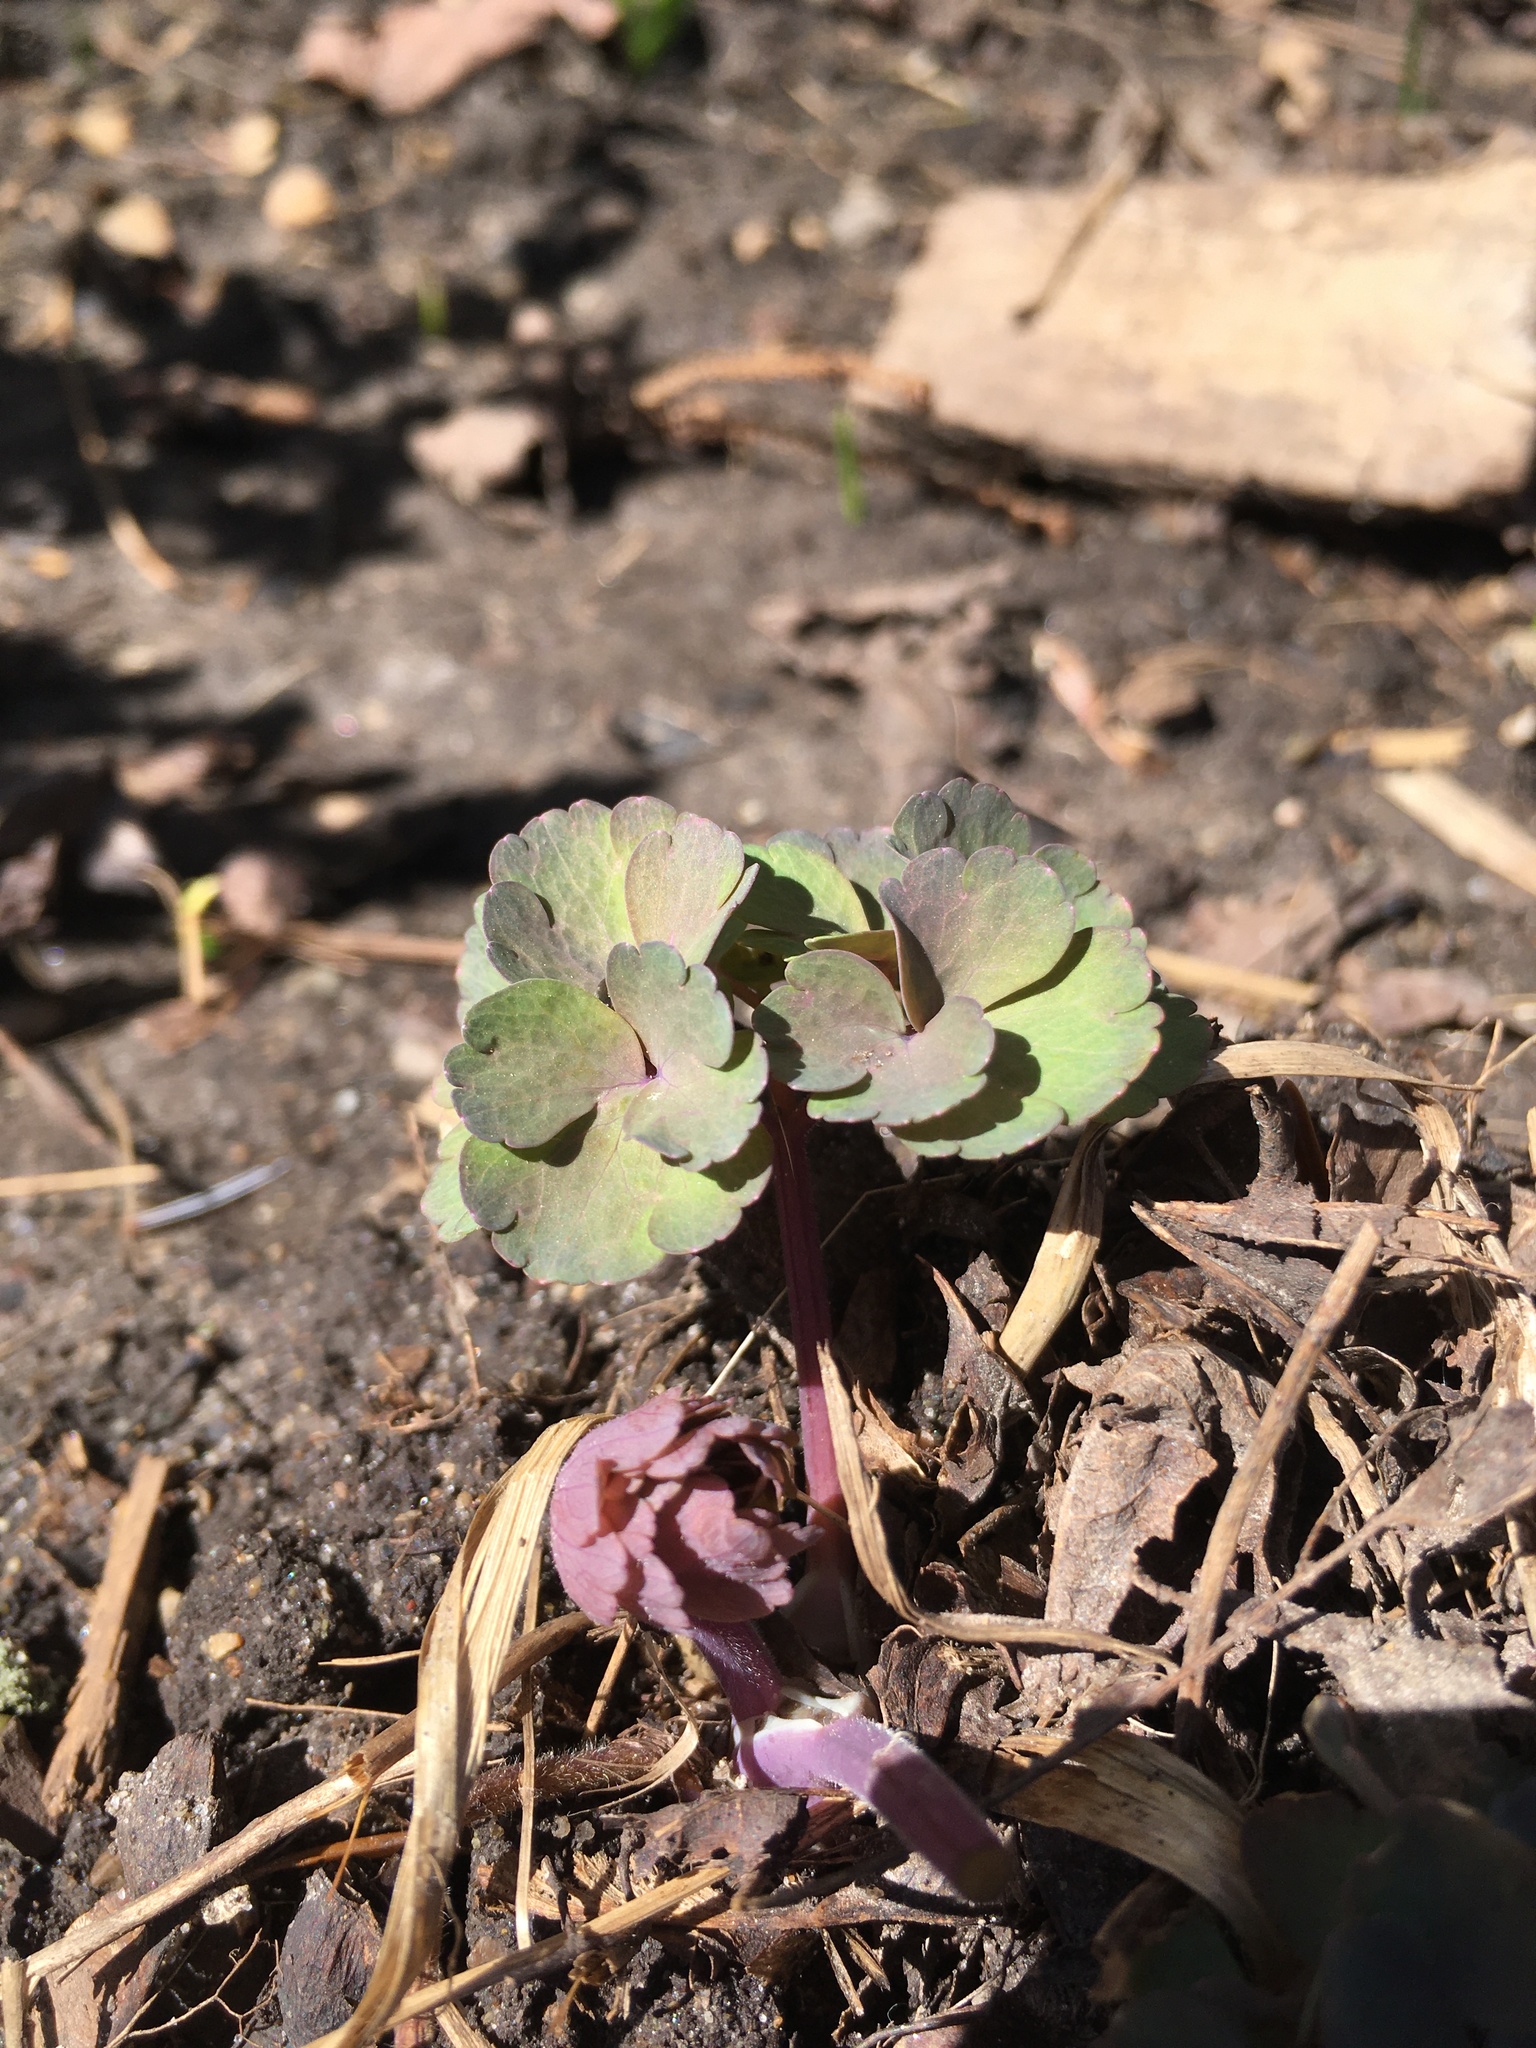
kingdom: Plantae
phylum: Tracheophyta
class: Magnoliopsida
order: Ranunculales
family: Ranunculaceae
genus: Aquilegia
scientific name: Aquilegia canadensis
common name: American columbine
